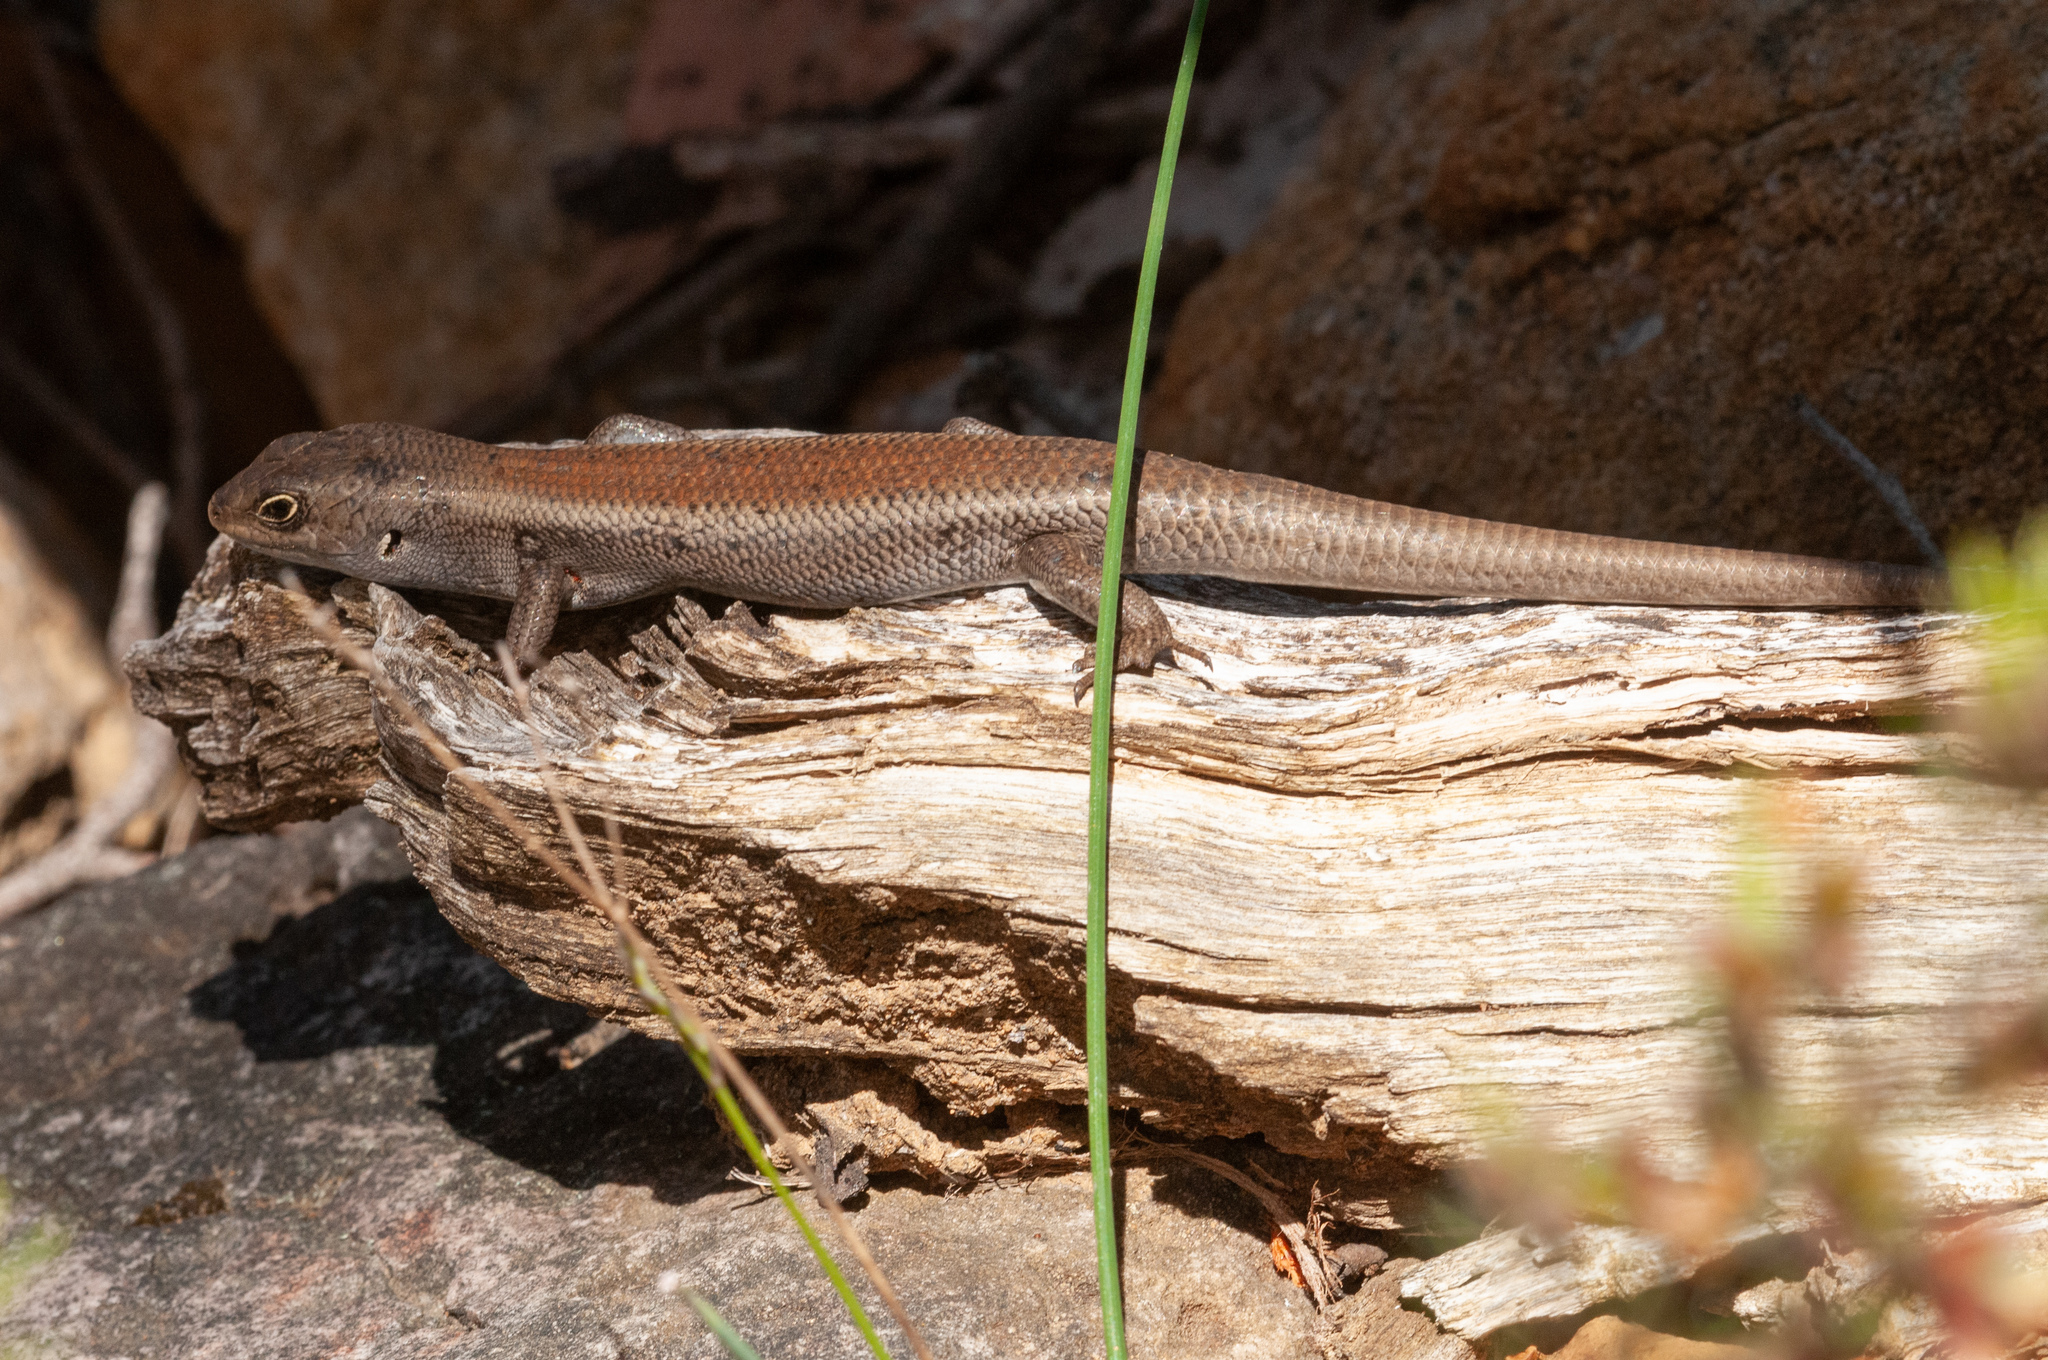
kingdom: Animalia
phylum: Chordata
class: Squamata
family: Scincidae
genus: Liopholis
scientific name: Liopholis whitii
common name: White's rock-skink
